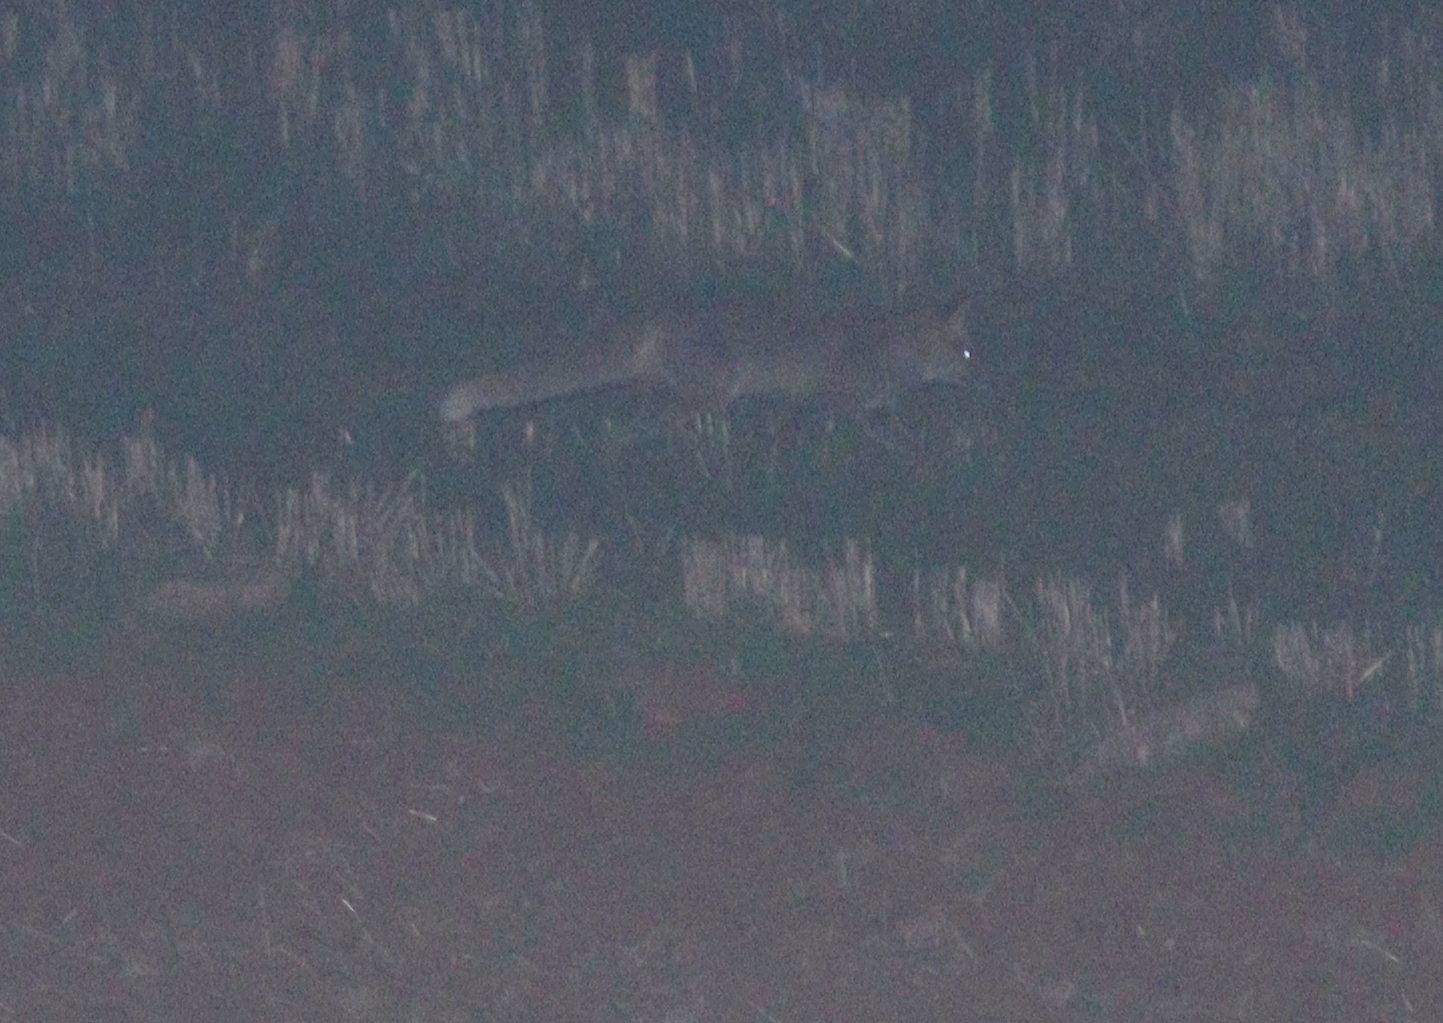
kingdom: Animalia
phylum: Chordata
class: Mammalia
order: Carnivora
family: Canidae
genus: Vulpes
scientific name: Vulpes vulpes
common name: Red fox
